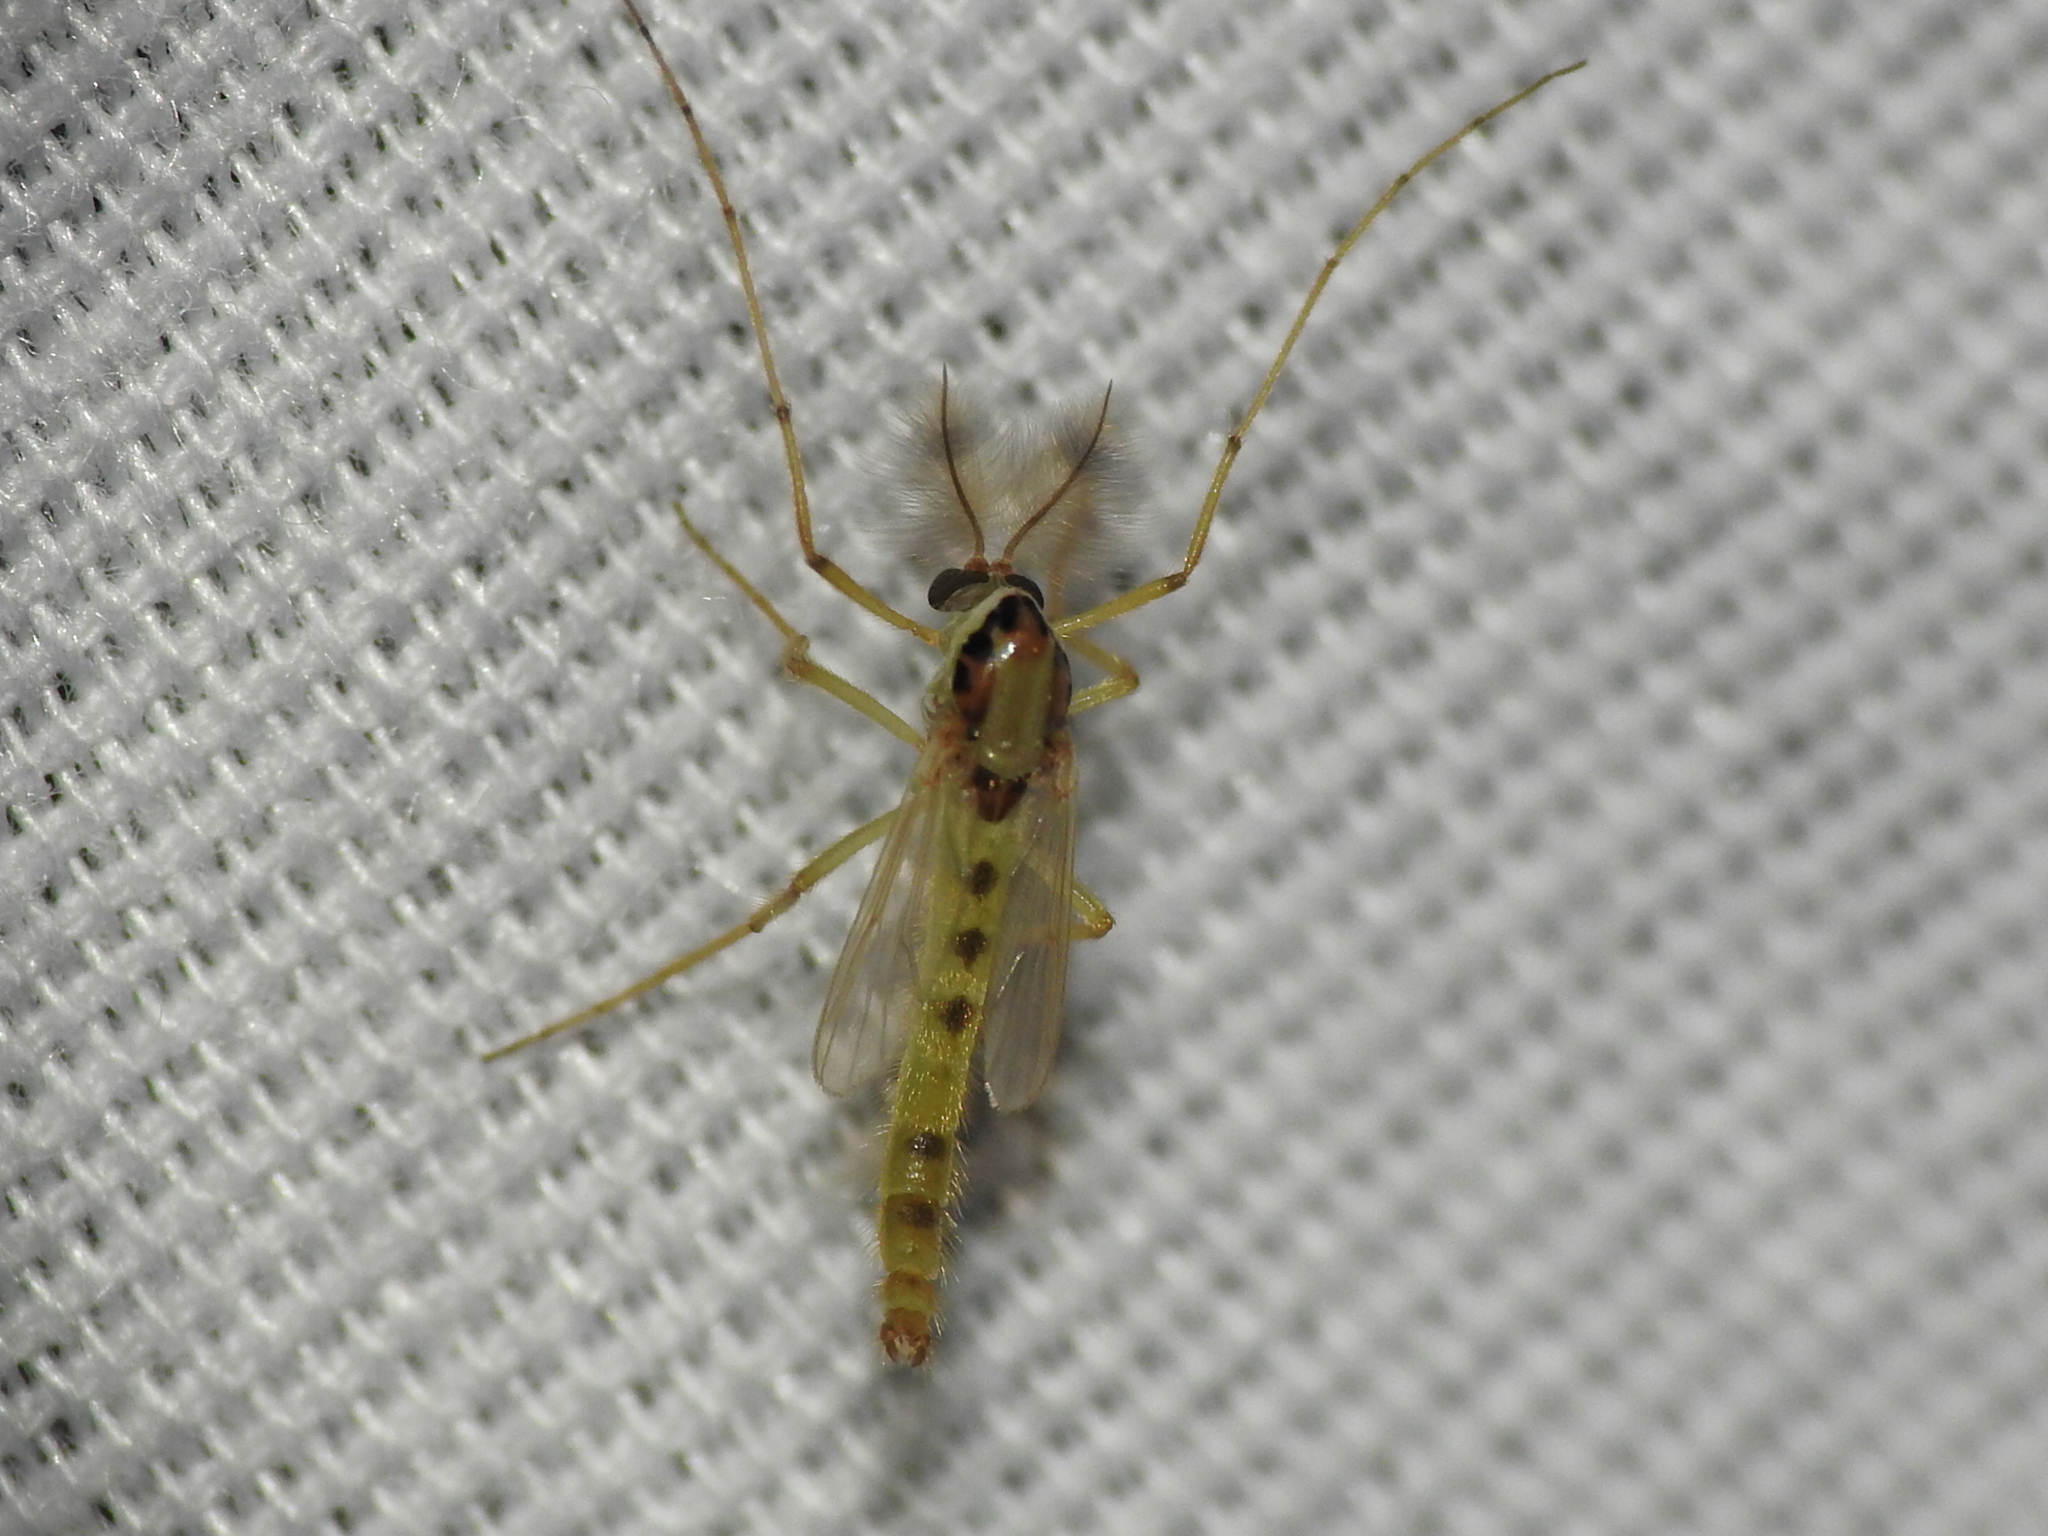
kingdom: Animalia
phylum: Arthropoda
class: Insecta
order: Diptera
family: Chironomidae
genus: Goeldichironomus
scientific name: Goeldichironomus carus
